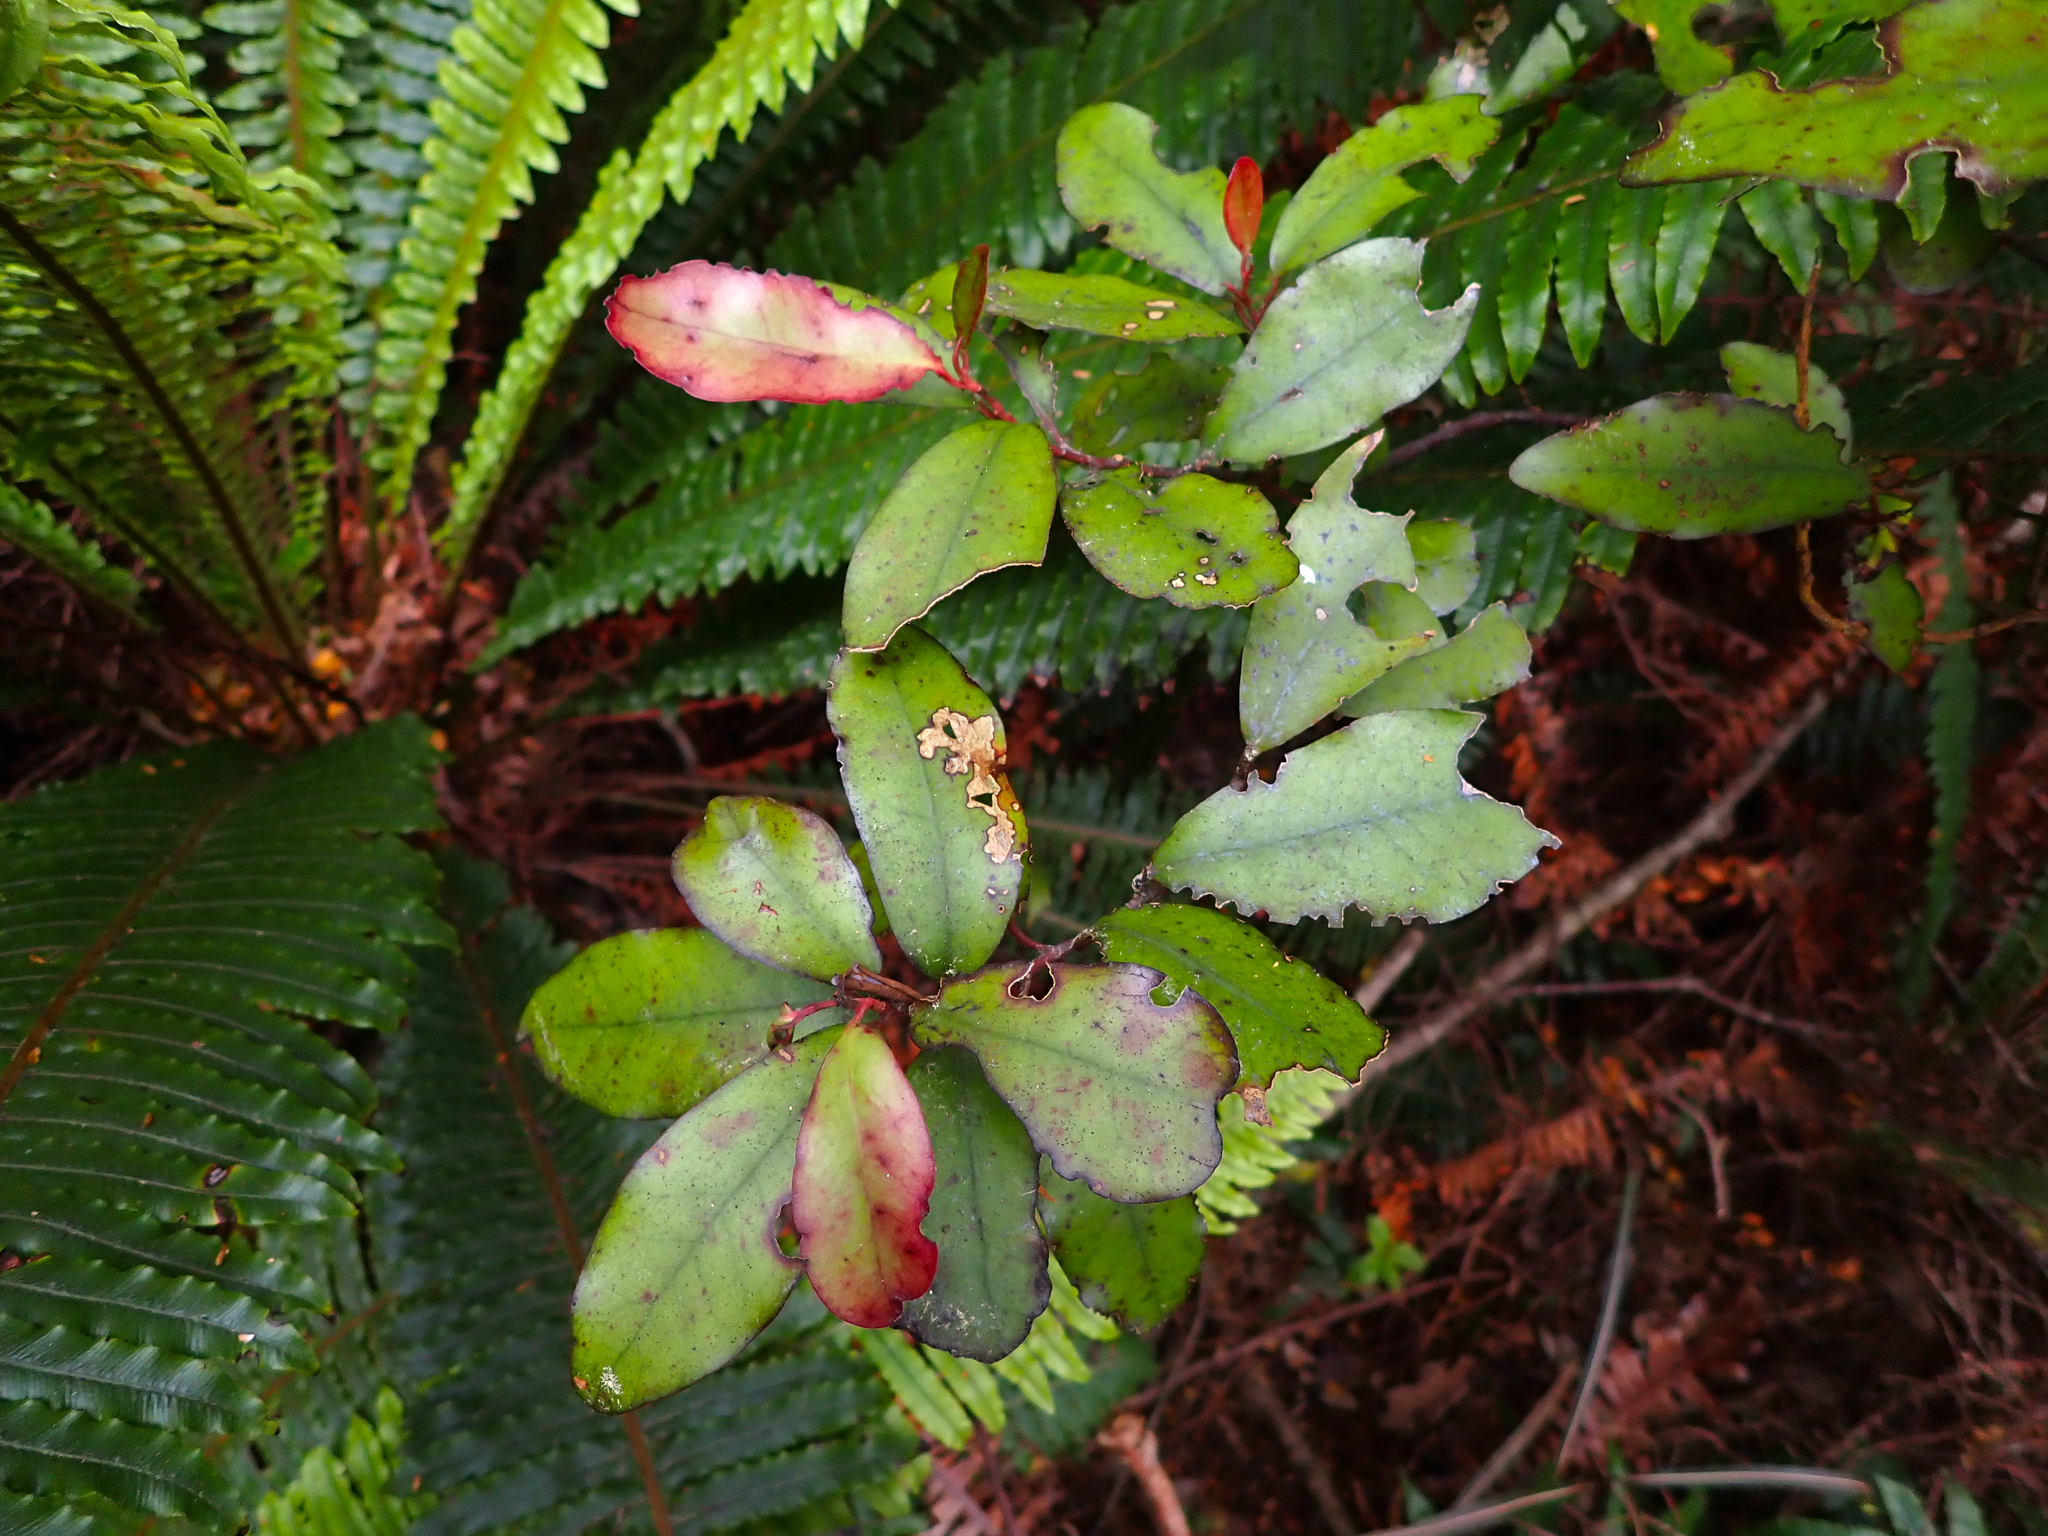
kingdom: Plantae
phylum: Tracheophyta
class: Magnoliopsida
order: Canellales
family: Winteraceae
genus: Pseudowintera
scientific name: Pseudowintera colorata
